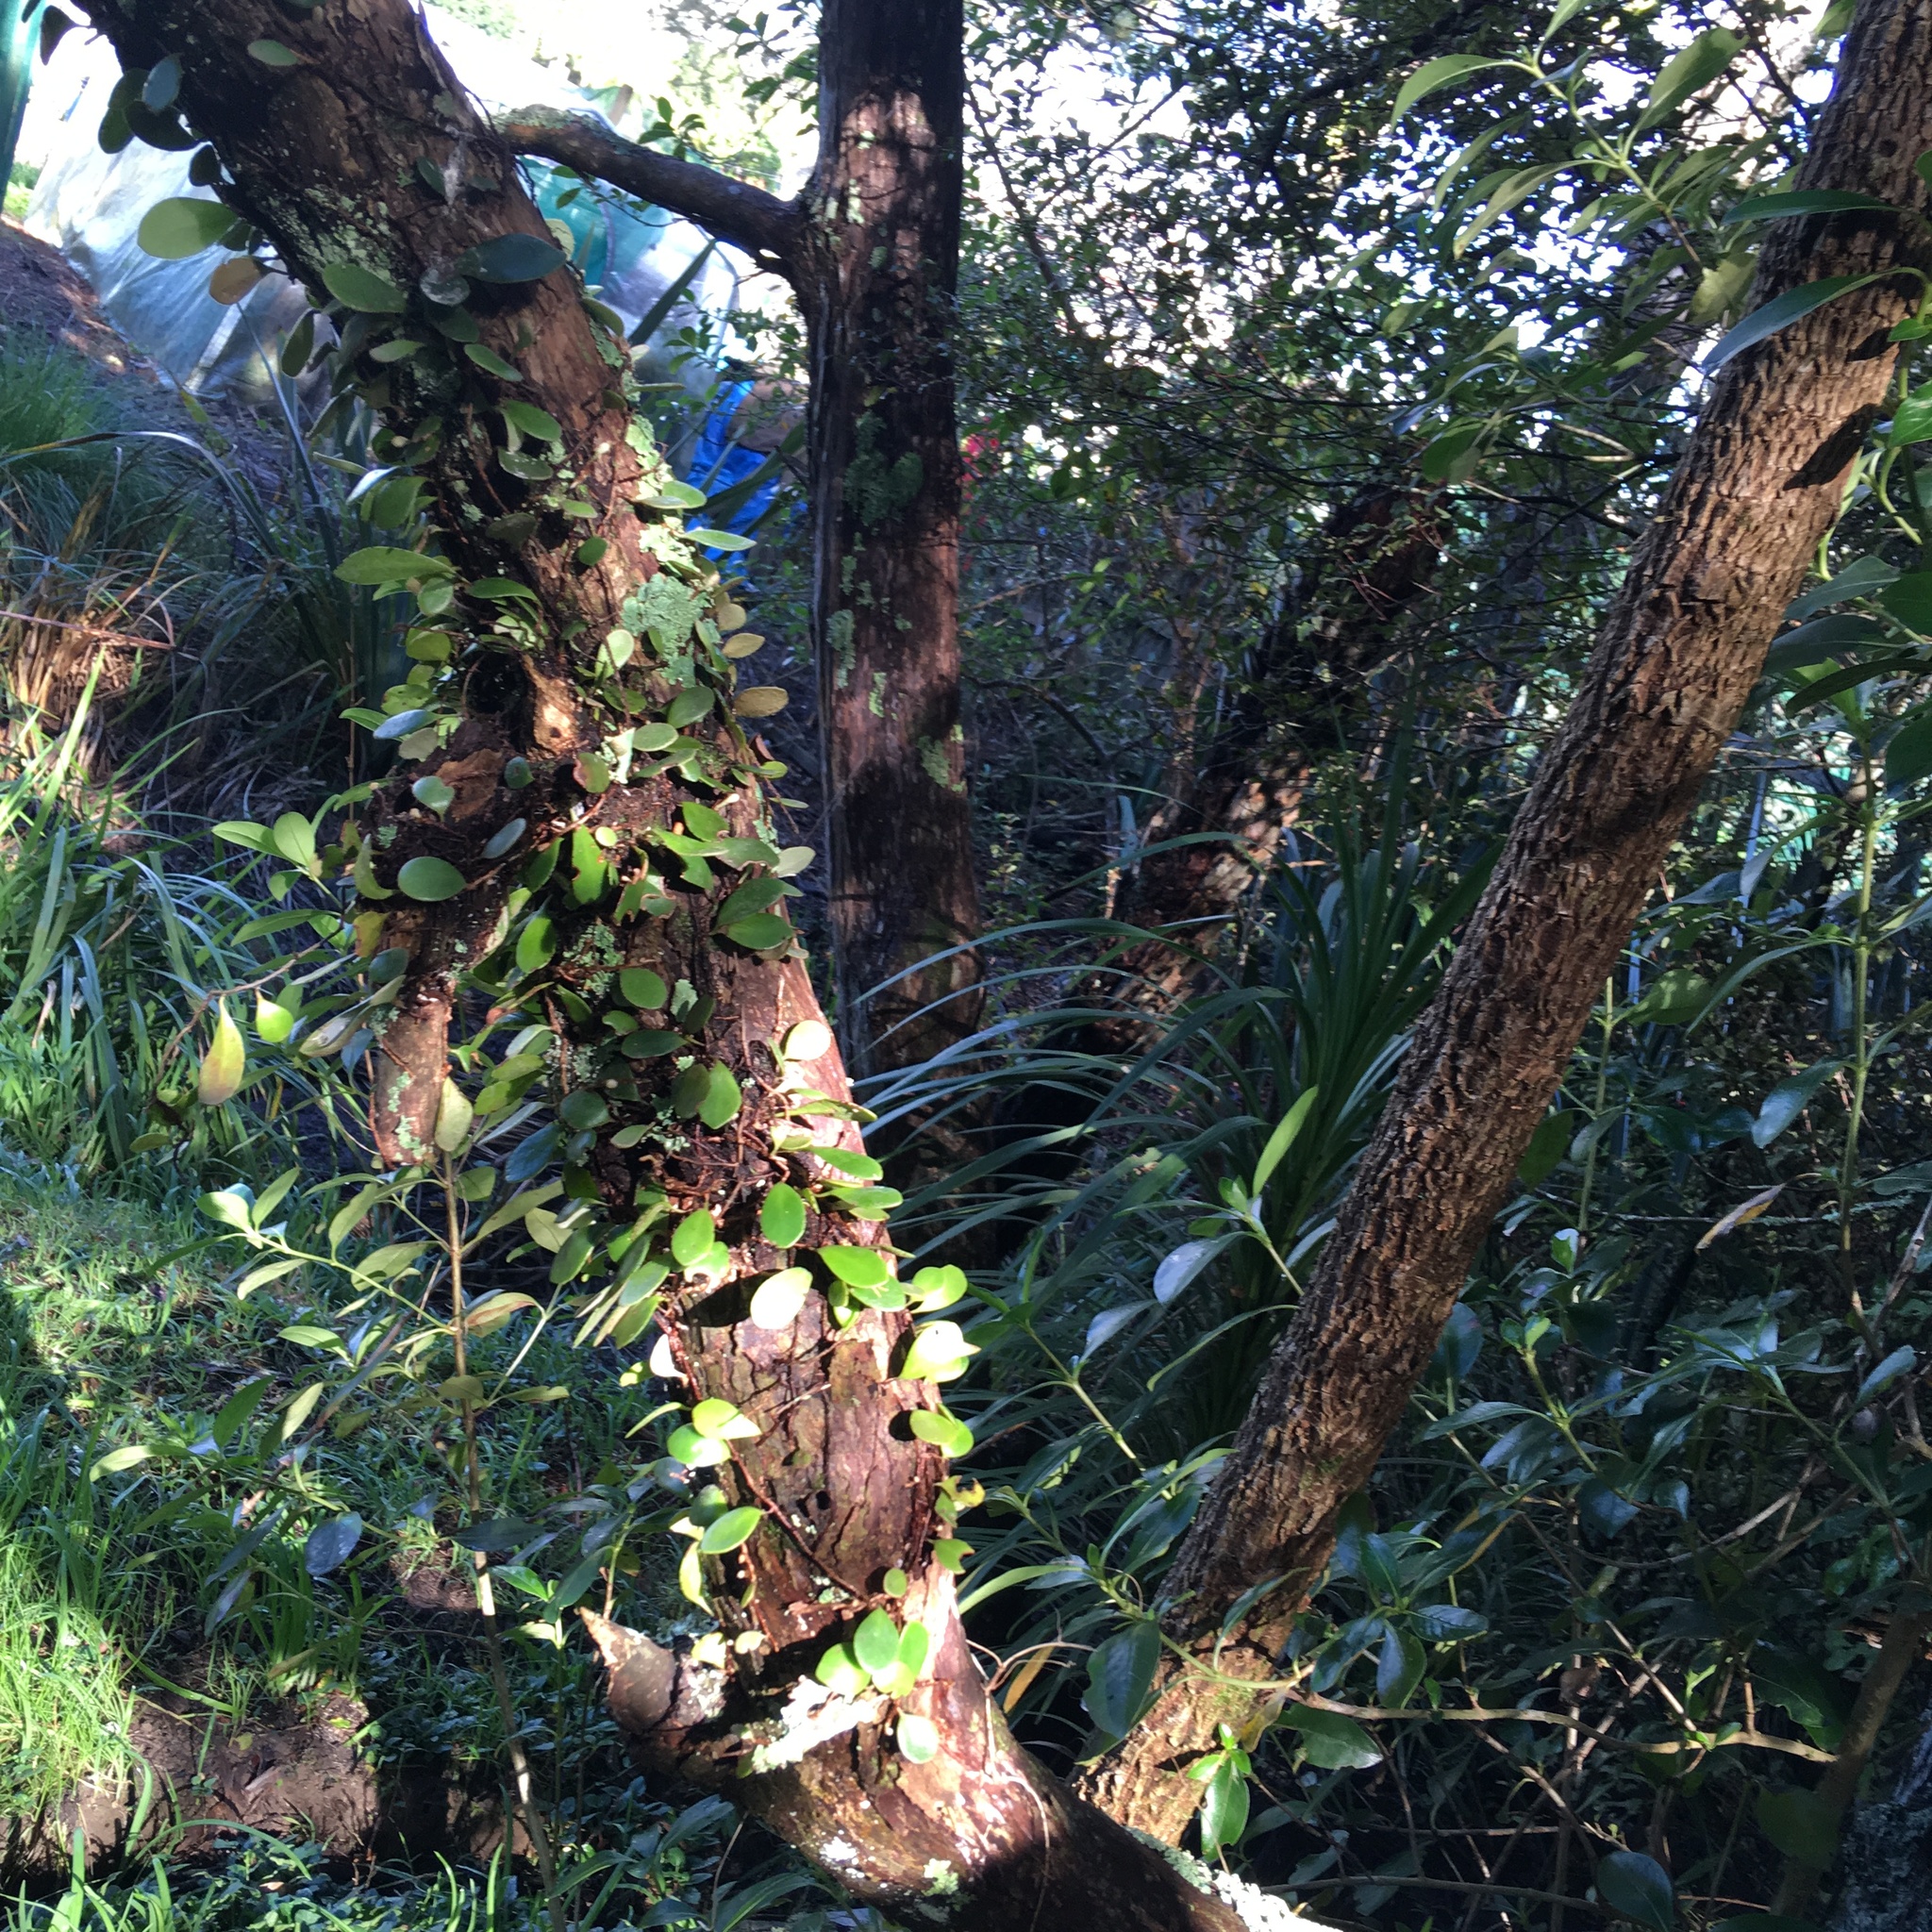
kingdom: Plantae
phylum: Tracheophyta
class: Polypodiopsida
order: Polypodiales
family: Polypodiaceae
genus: Pyrrosia
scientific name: Pyrrosia eleagnifolia
